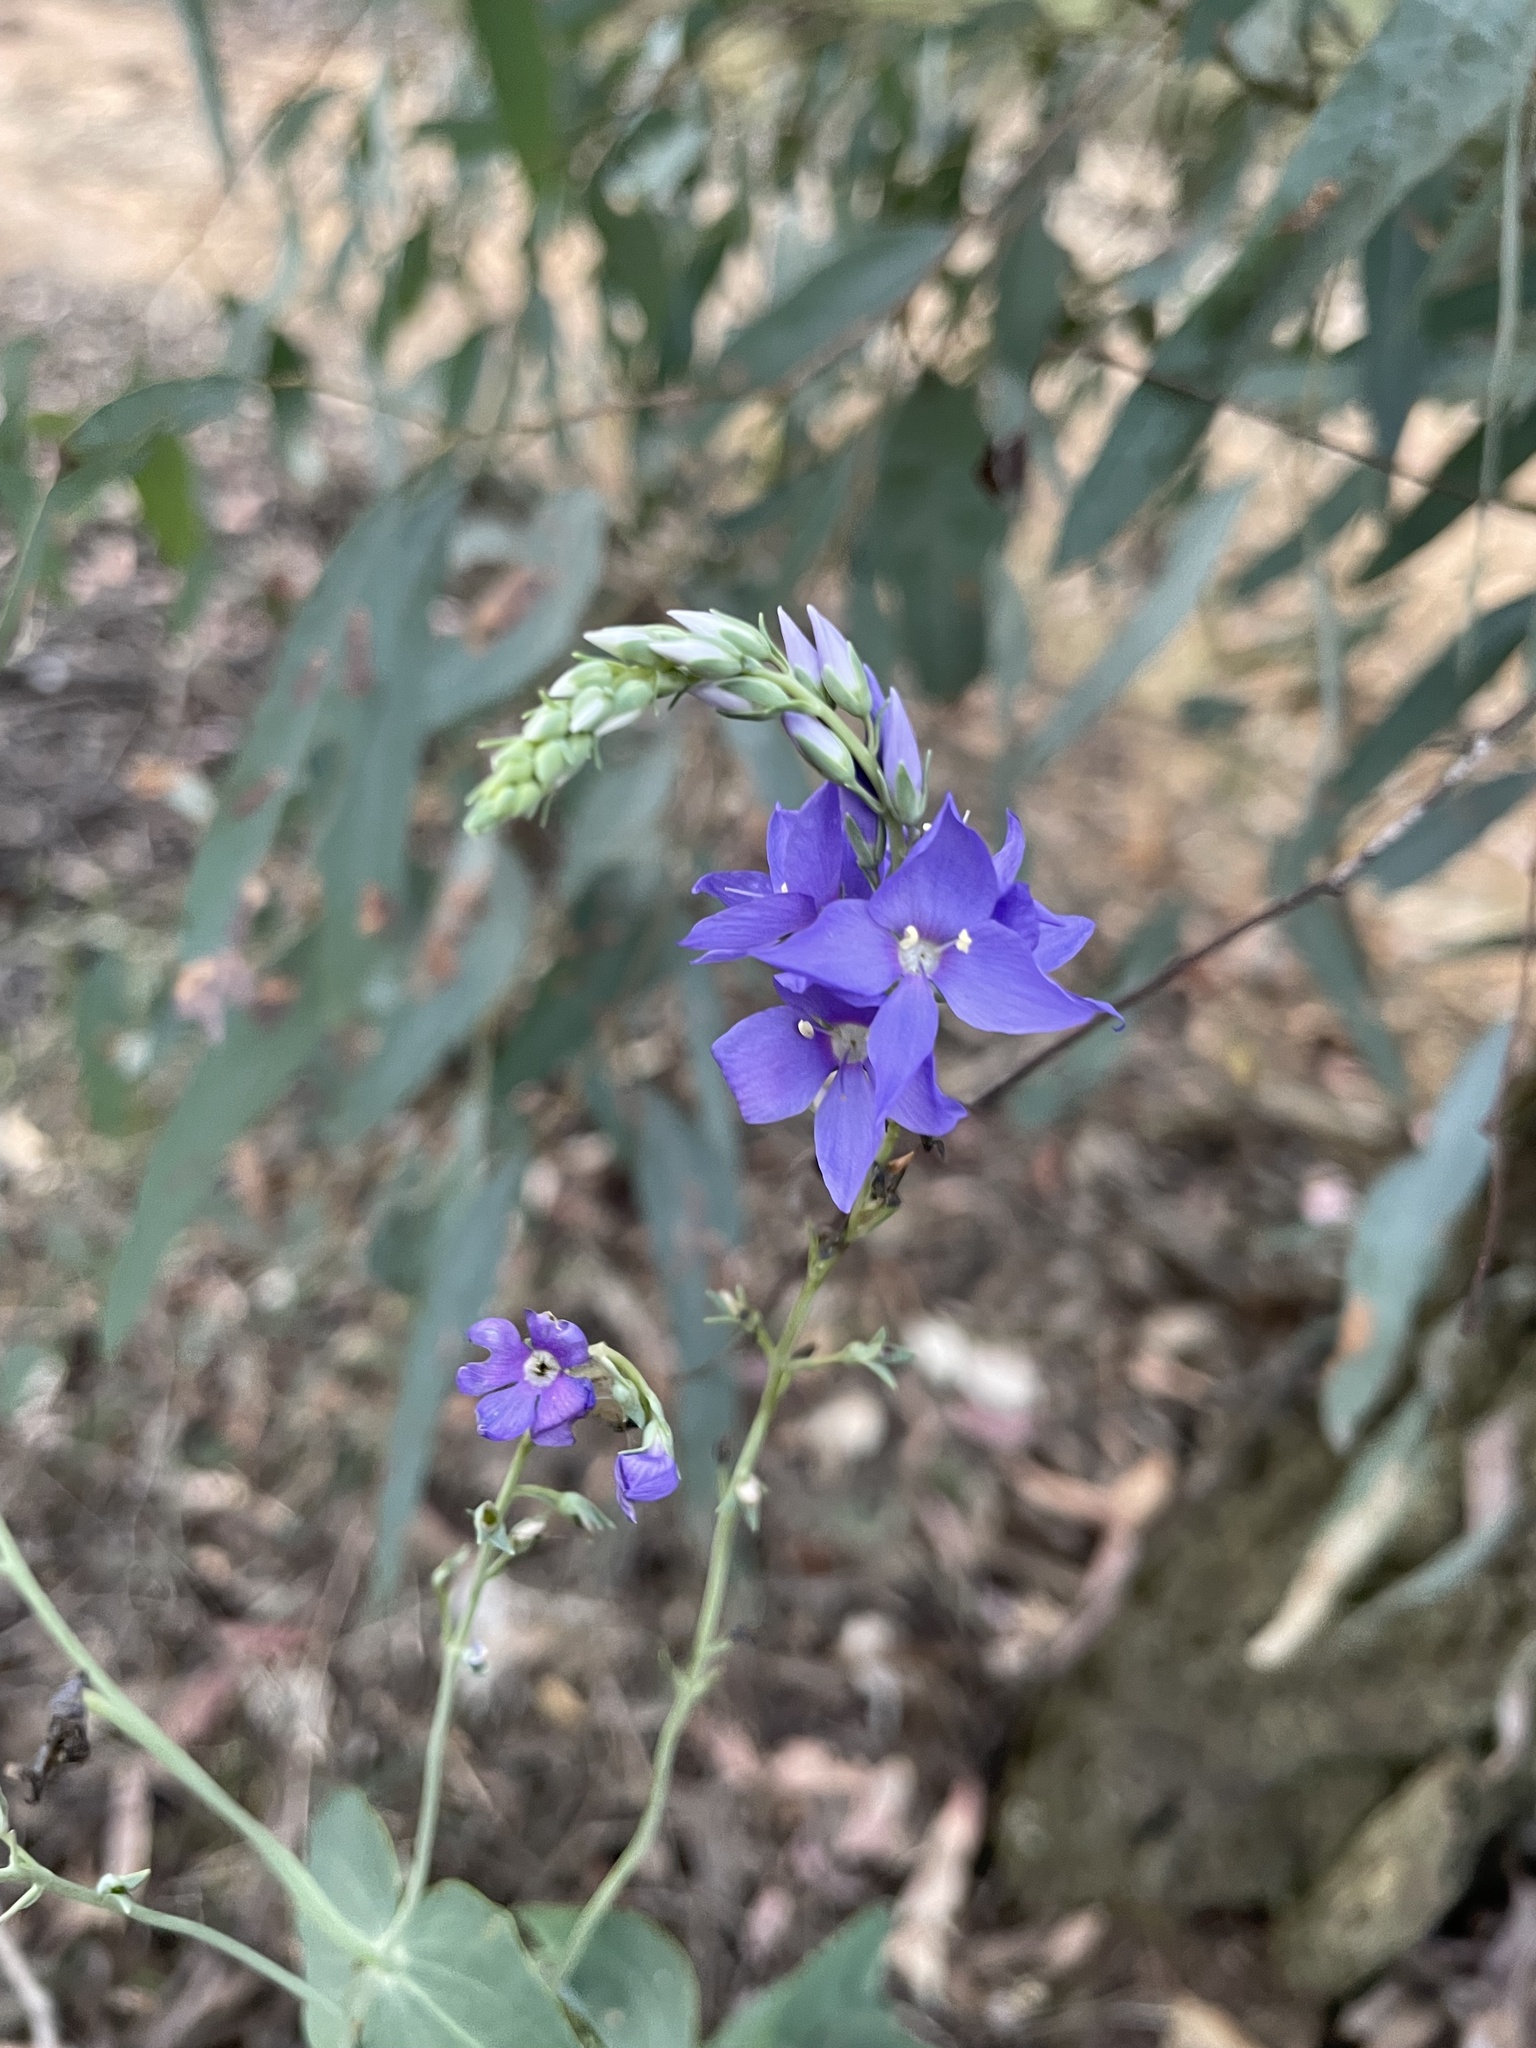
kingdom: Plantae
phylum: Tracheophyta
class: Magnoliopsida
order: Lamiales
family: Plantaginaceae
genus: Veronica
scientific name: Veronica perfoliata
